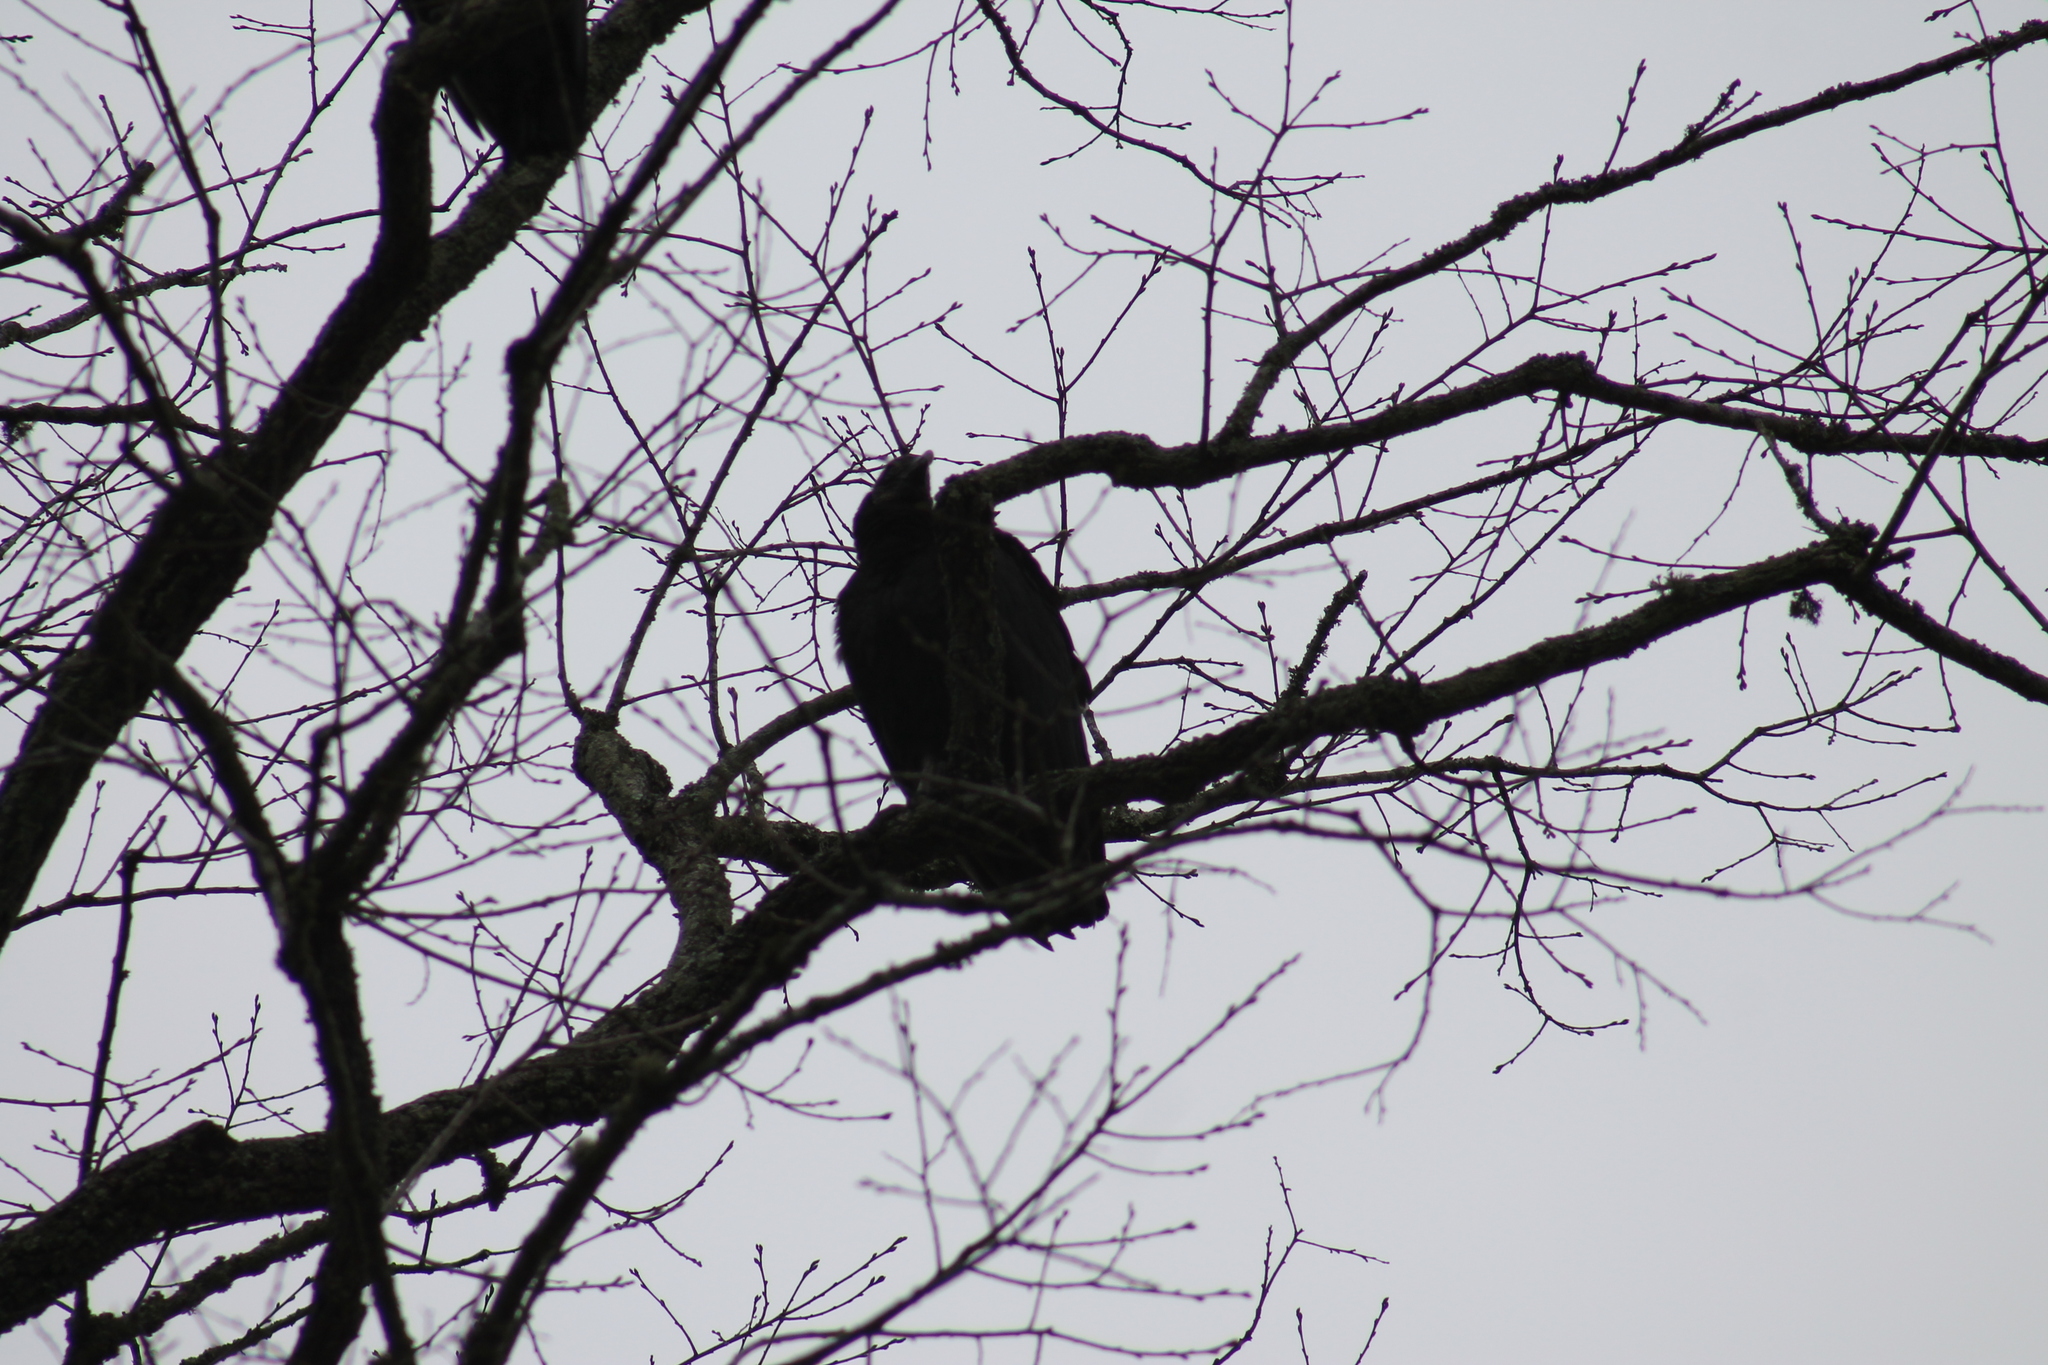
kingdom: Animalia
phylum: Chordata
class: Aves
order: Accipitriformes
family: Cathartidae
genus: Coragyps
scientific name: Coragyps atratus
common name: Black vulture
